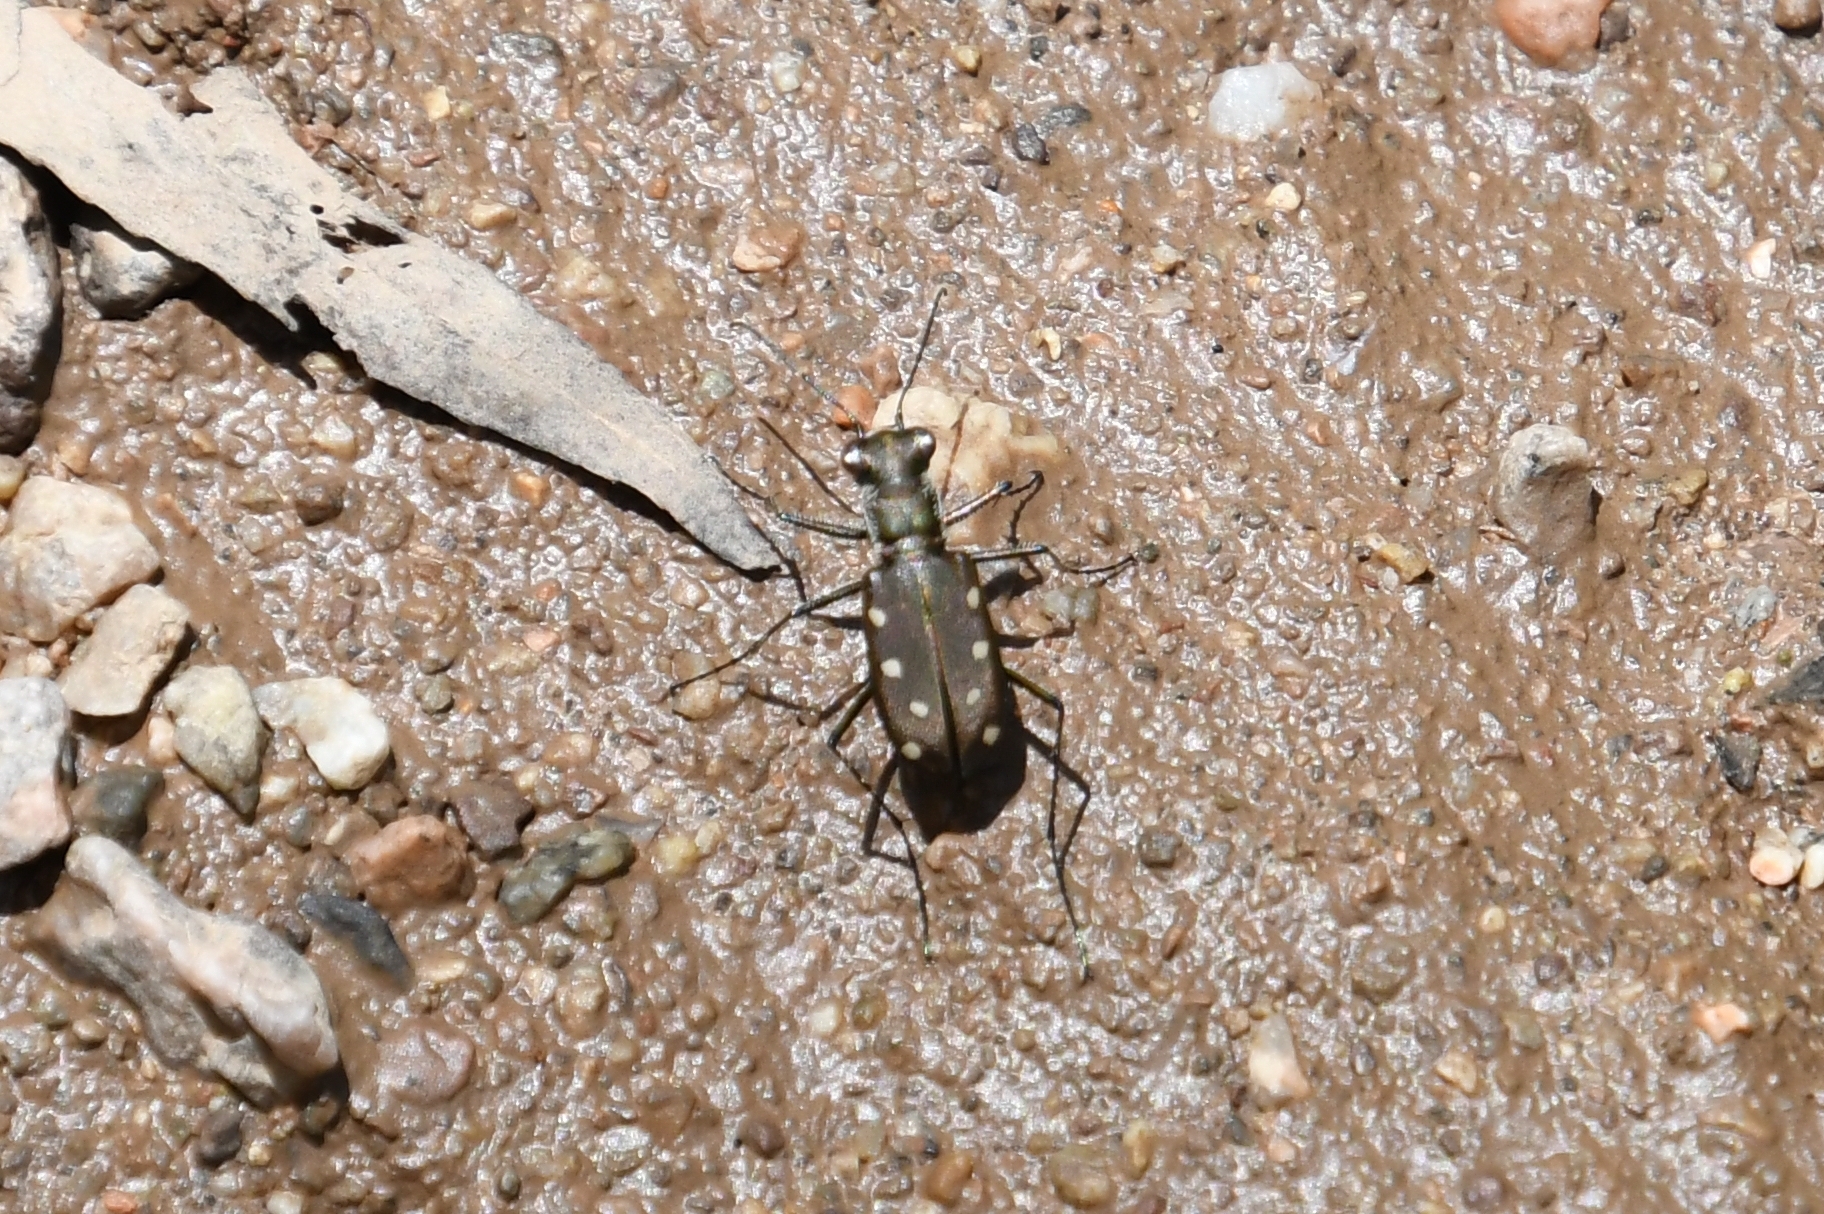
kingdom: Animalia
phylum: Arthropoda
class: Insecta
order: Coleoptera
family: Carabidae
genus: Cicindela
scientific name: Cicindela ocellata
